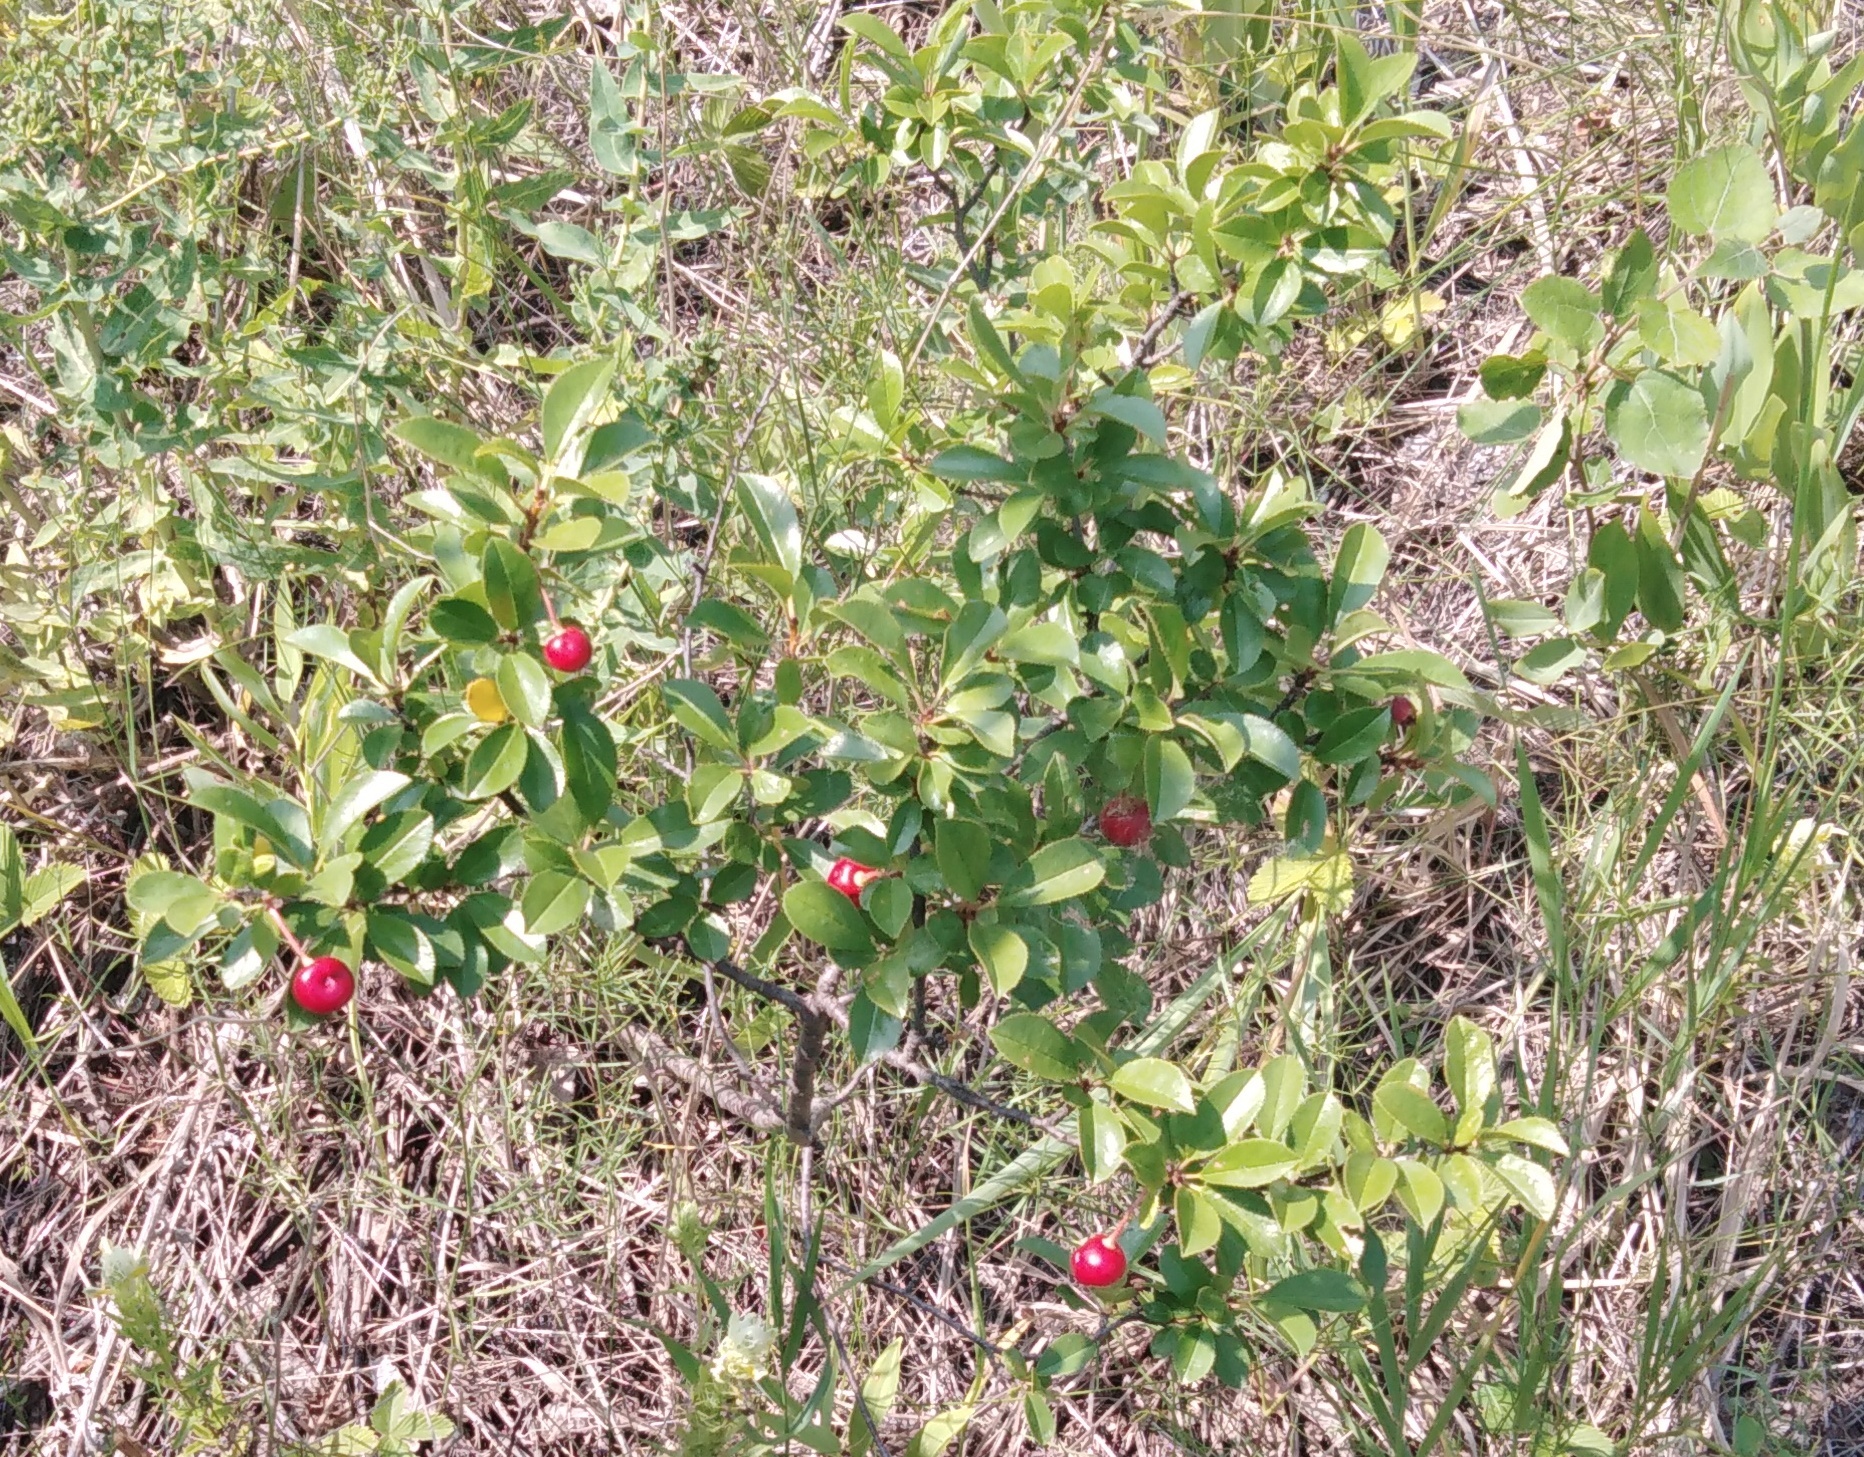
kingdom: Plantae
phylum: Tracheophyta
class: Magnoliopsida
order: Rosales
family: Rosaceae
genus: Prunus
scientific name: Prunus fruticosa
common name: European dwarf cherry
